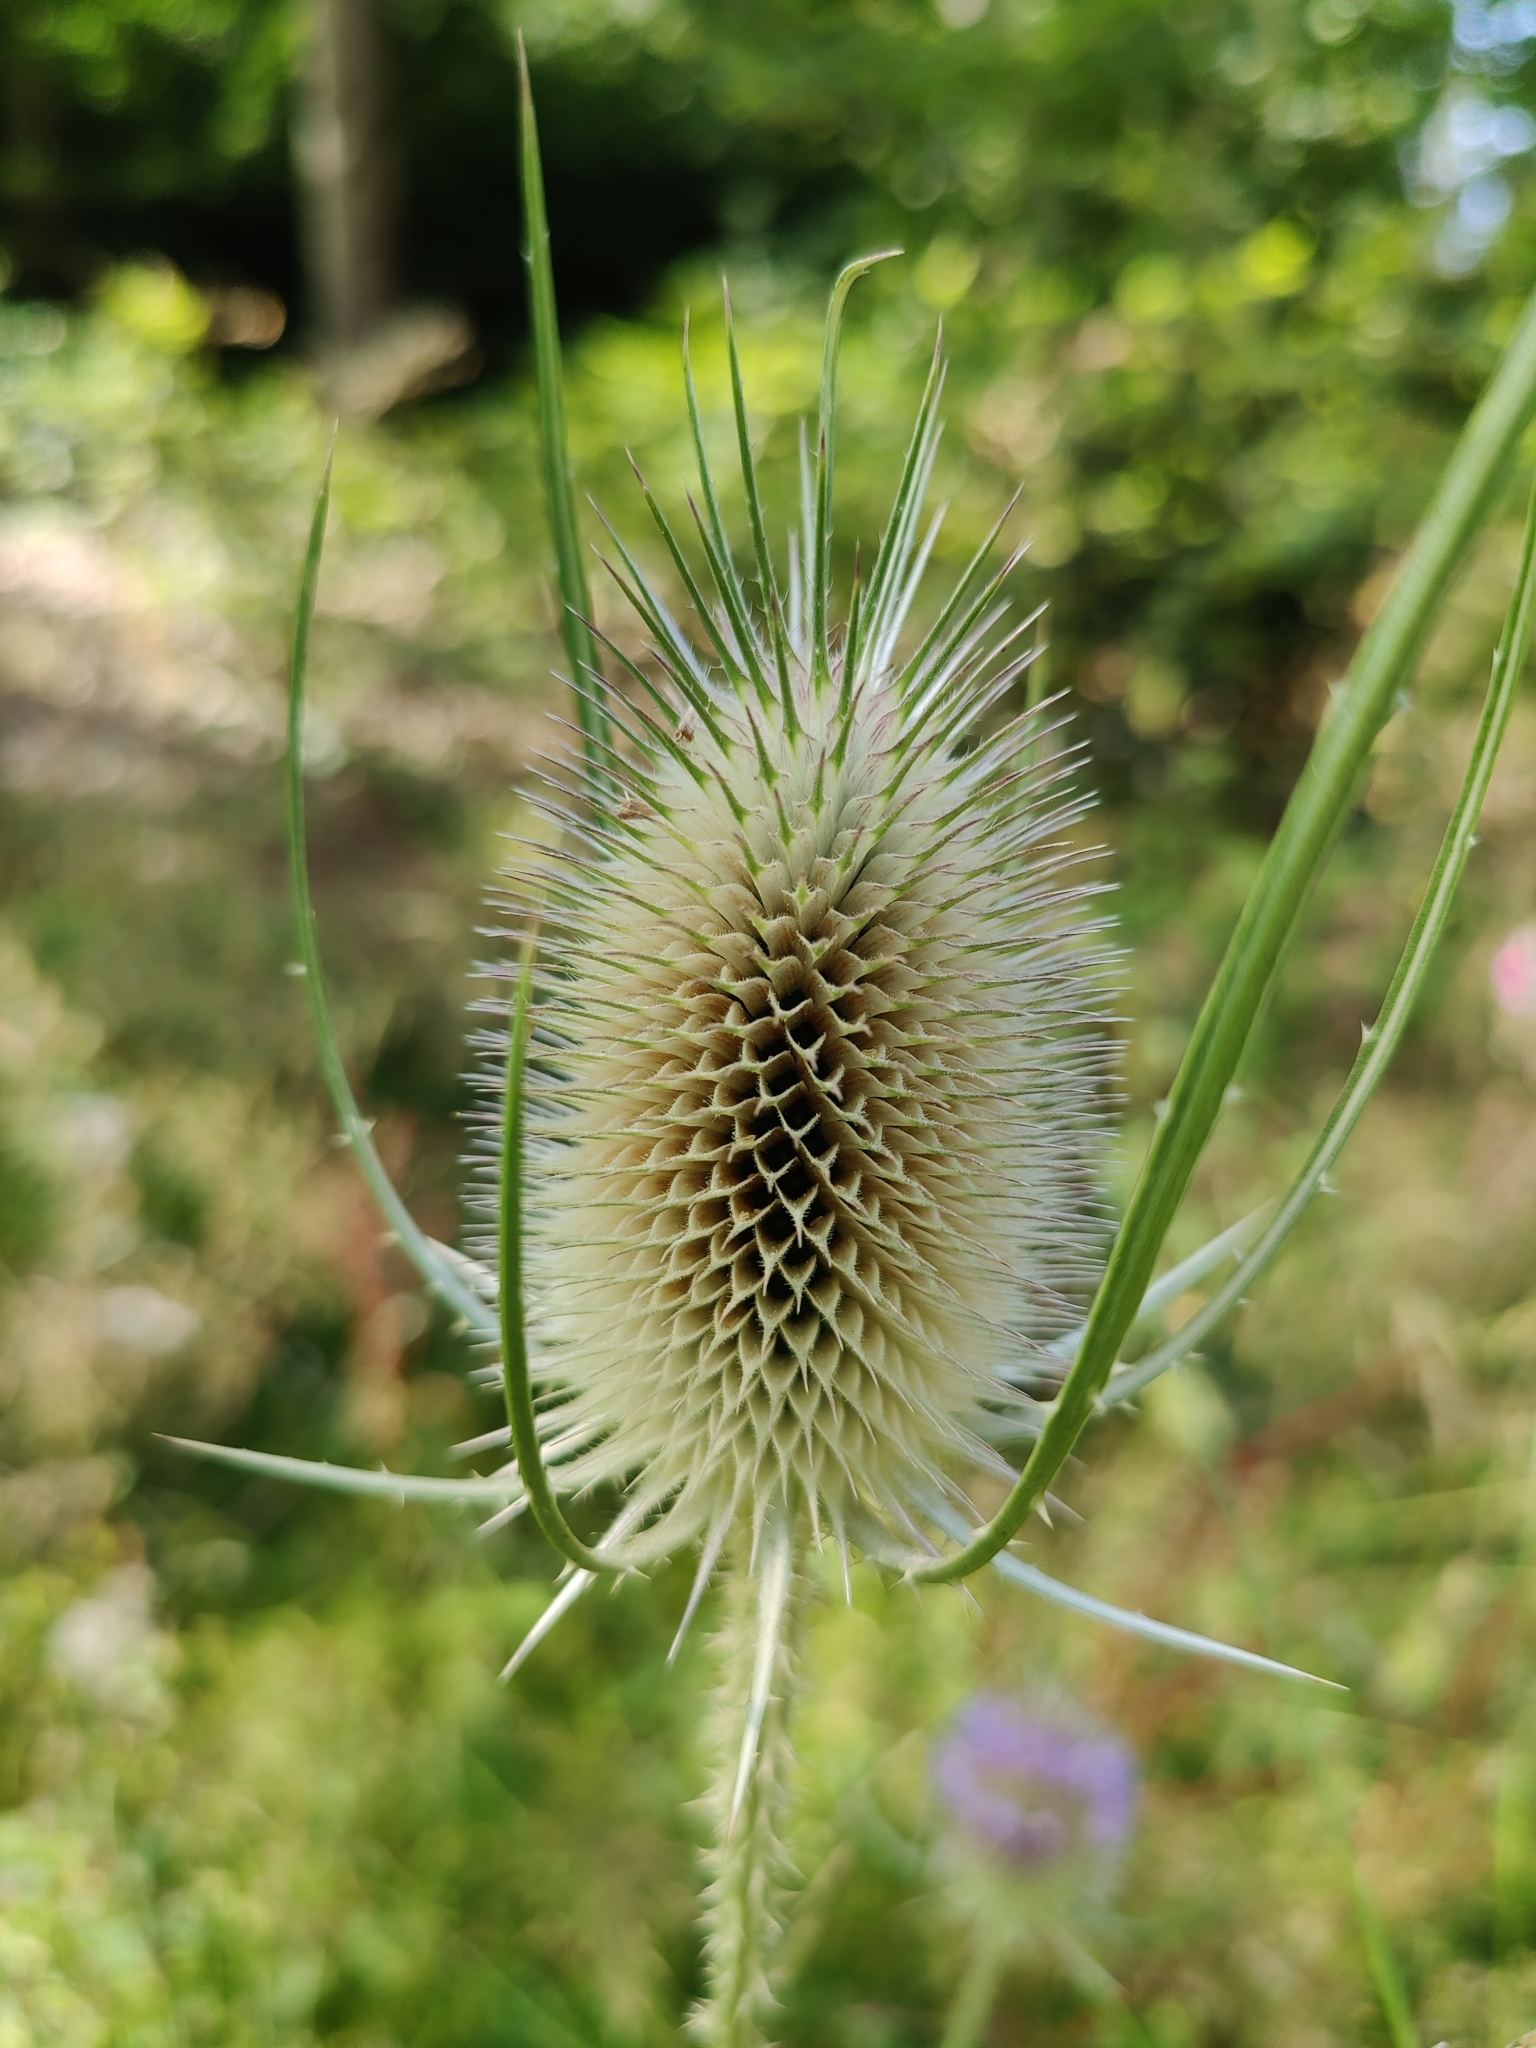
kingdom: Plantae
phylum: Tracheophyta
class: Magnoliopsida
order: Dipsacales
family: Caprifoliaceae
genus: Dipsacus
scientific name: Dipsacus fullonum
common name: Teasel
